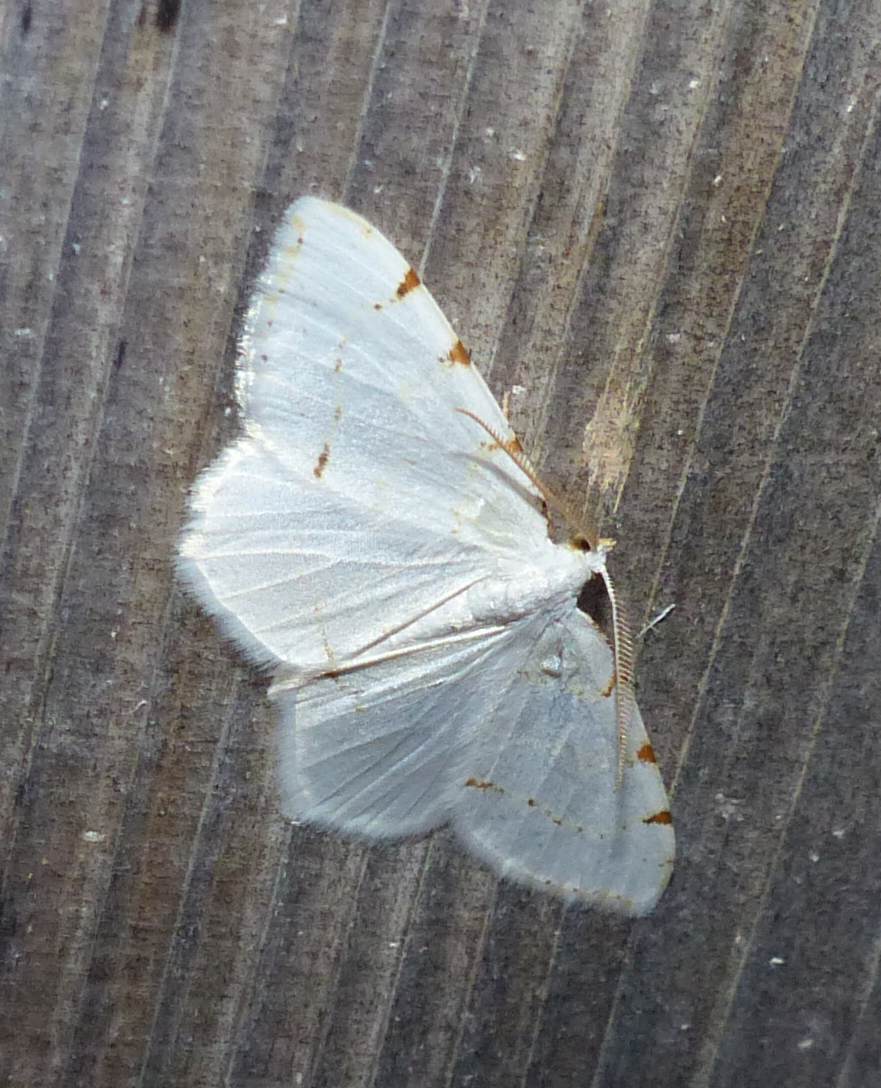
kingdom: Animalia
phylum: Arthropoda
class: Insecta
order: Lepidoptera
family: Geometridae
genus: Macaria
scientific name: Macaria pustularia
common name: Lesser maple spanworm moth
